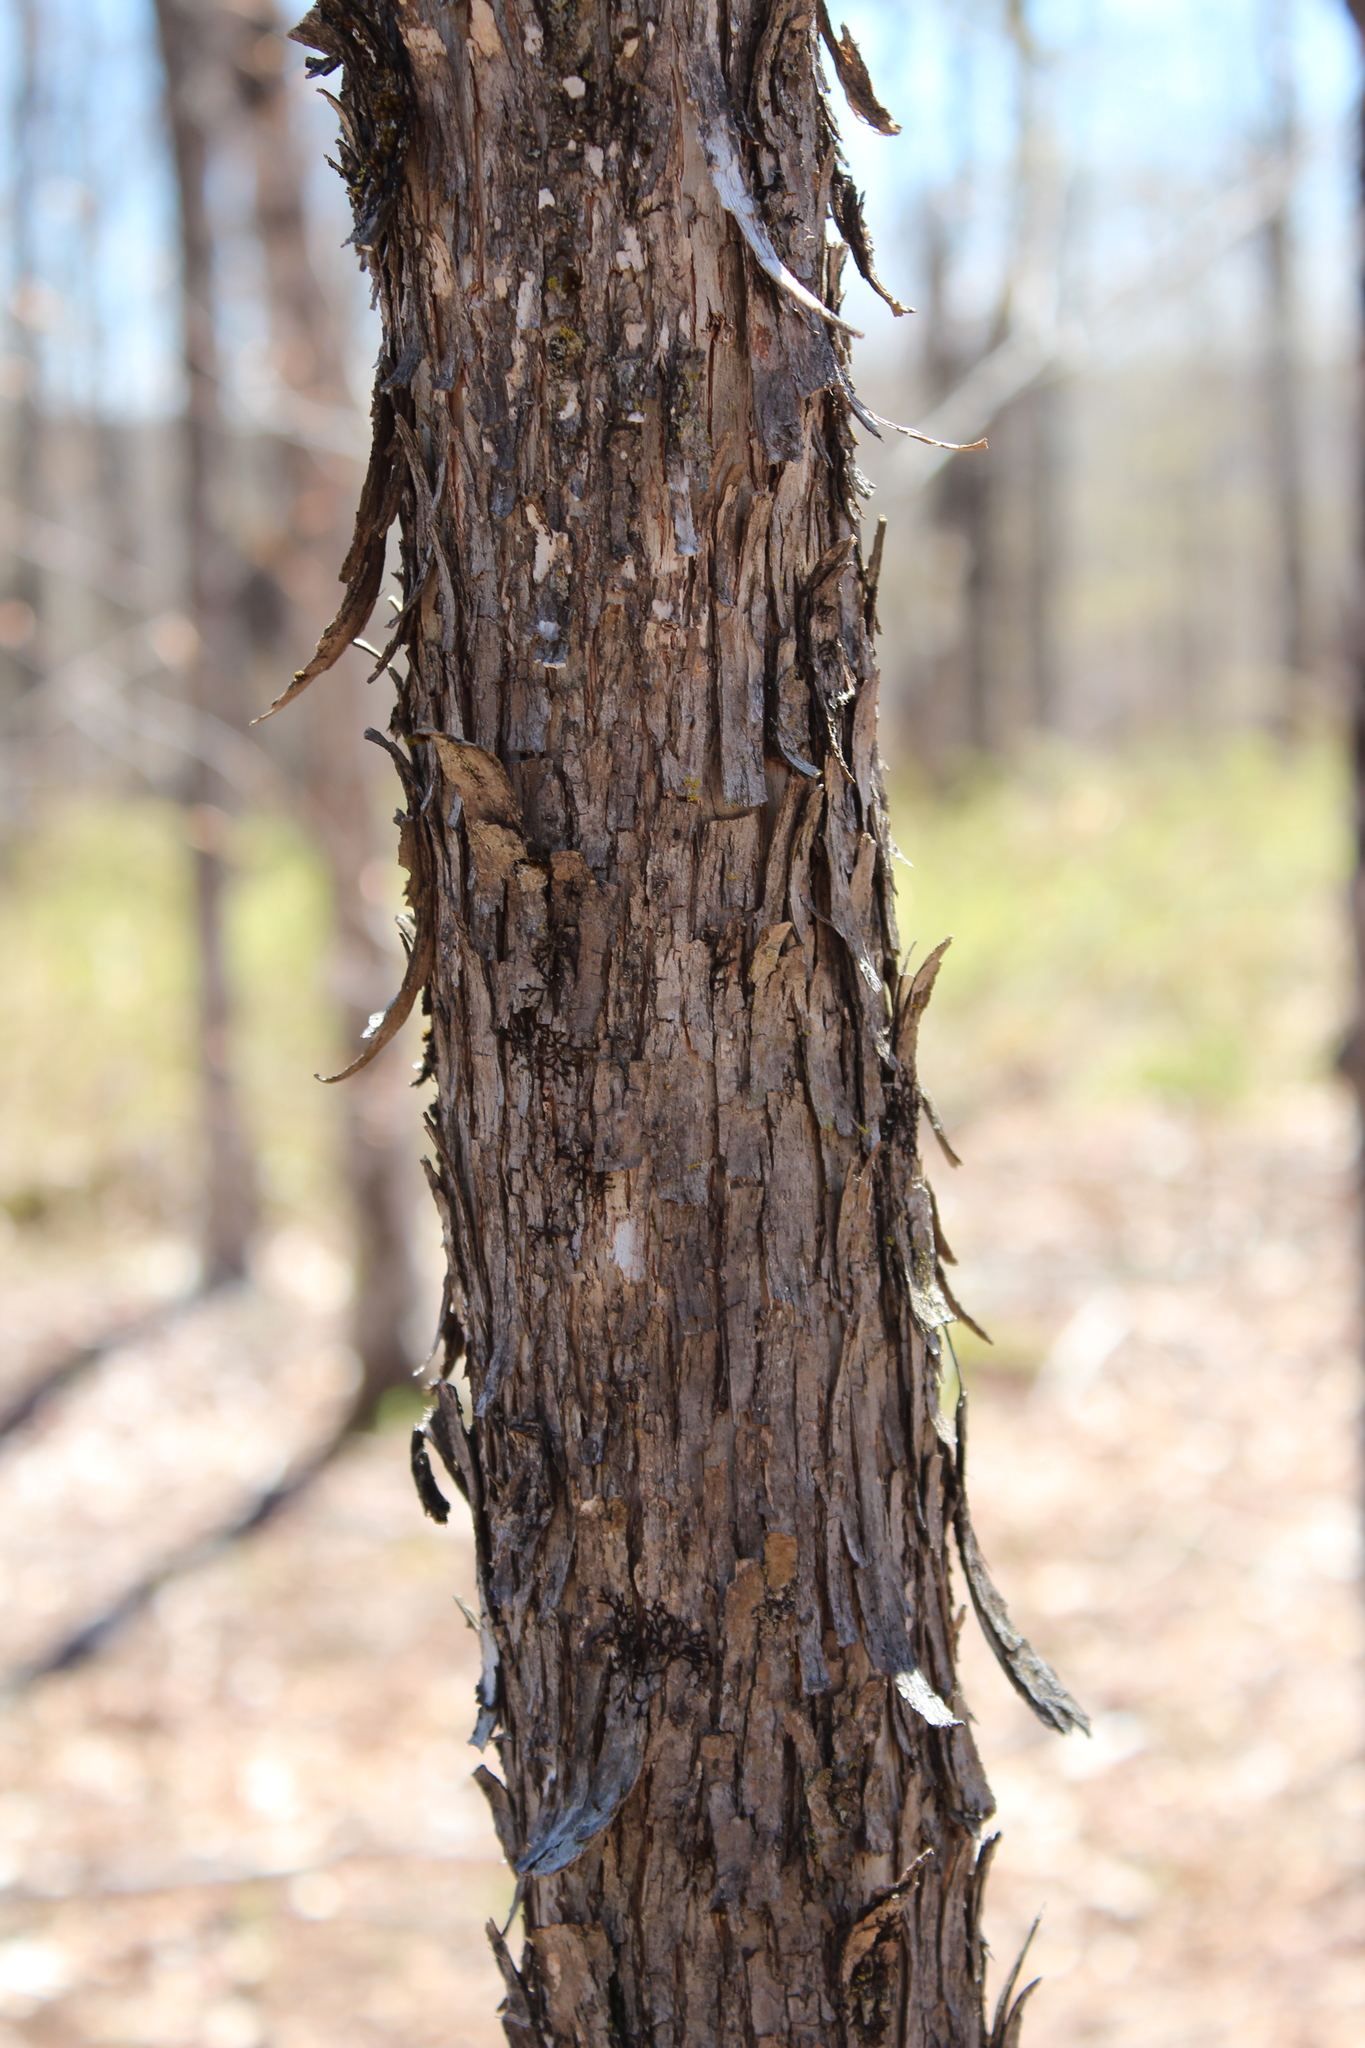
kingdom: Plantae
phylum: Tracheophyta
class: Magnoliopsida
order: Fagales
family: Betulaceae
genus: Ostrya
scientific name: Ostrya virginiana
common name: Ironwood
